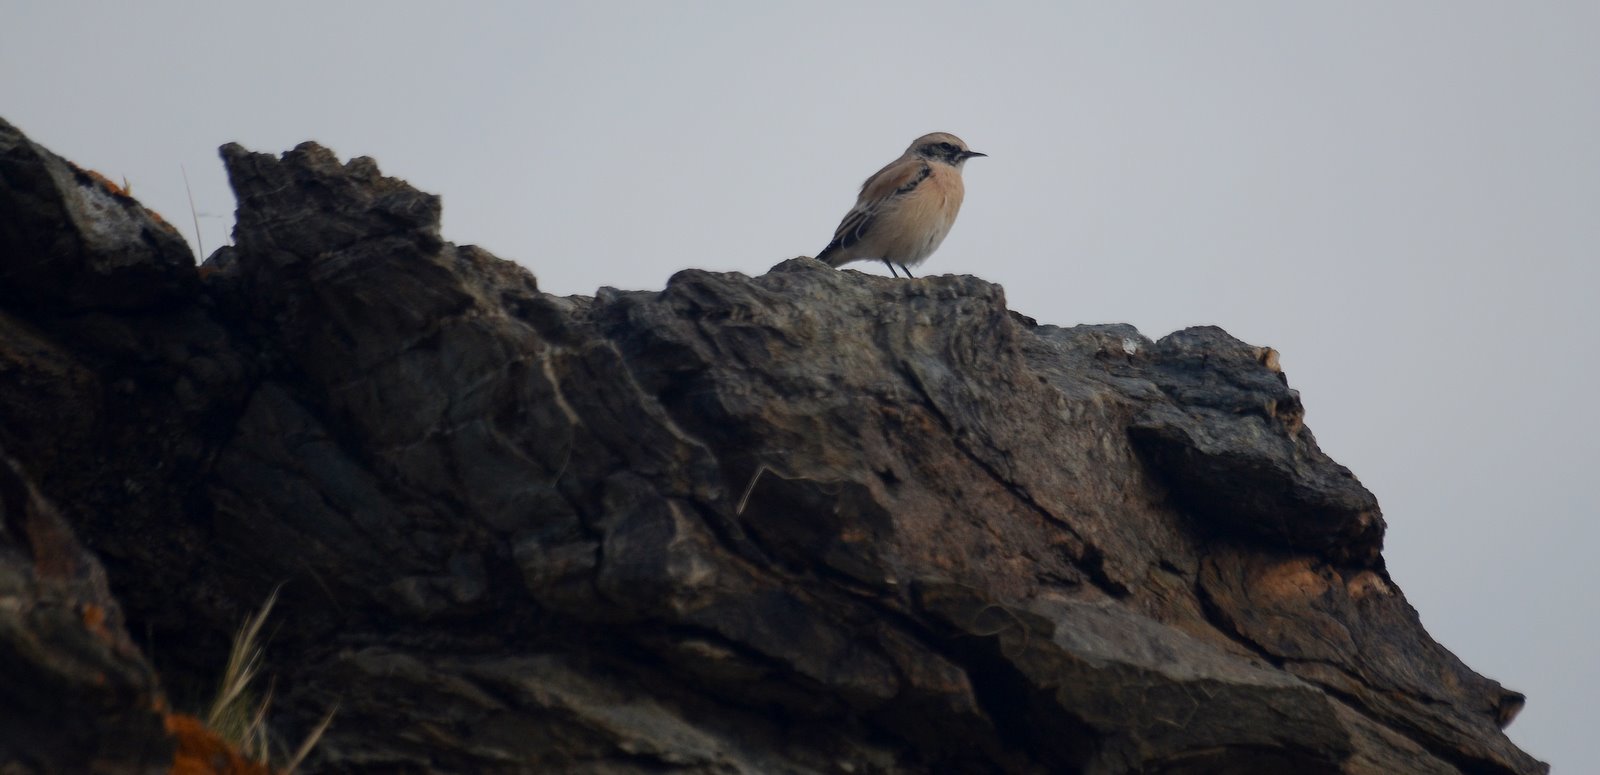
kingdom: Animalia
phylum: Chordata
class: Aves
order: Passeriformes
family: Muscicapidae
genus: Oenanthe
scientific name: Oenanthe deserti
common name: Desert wheatear
